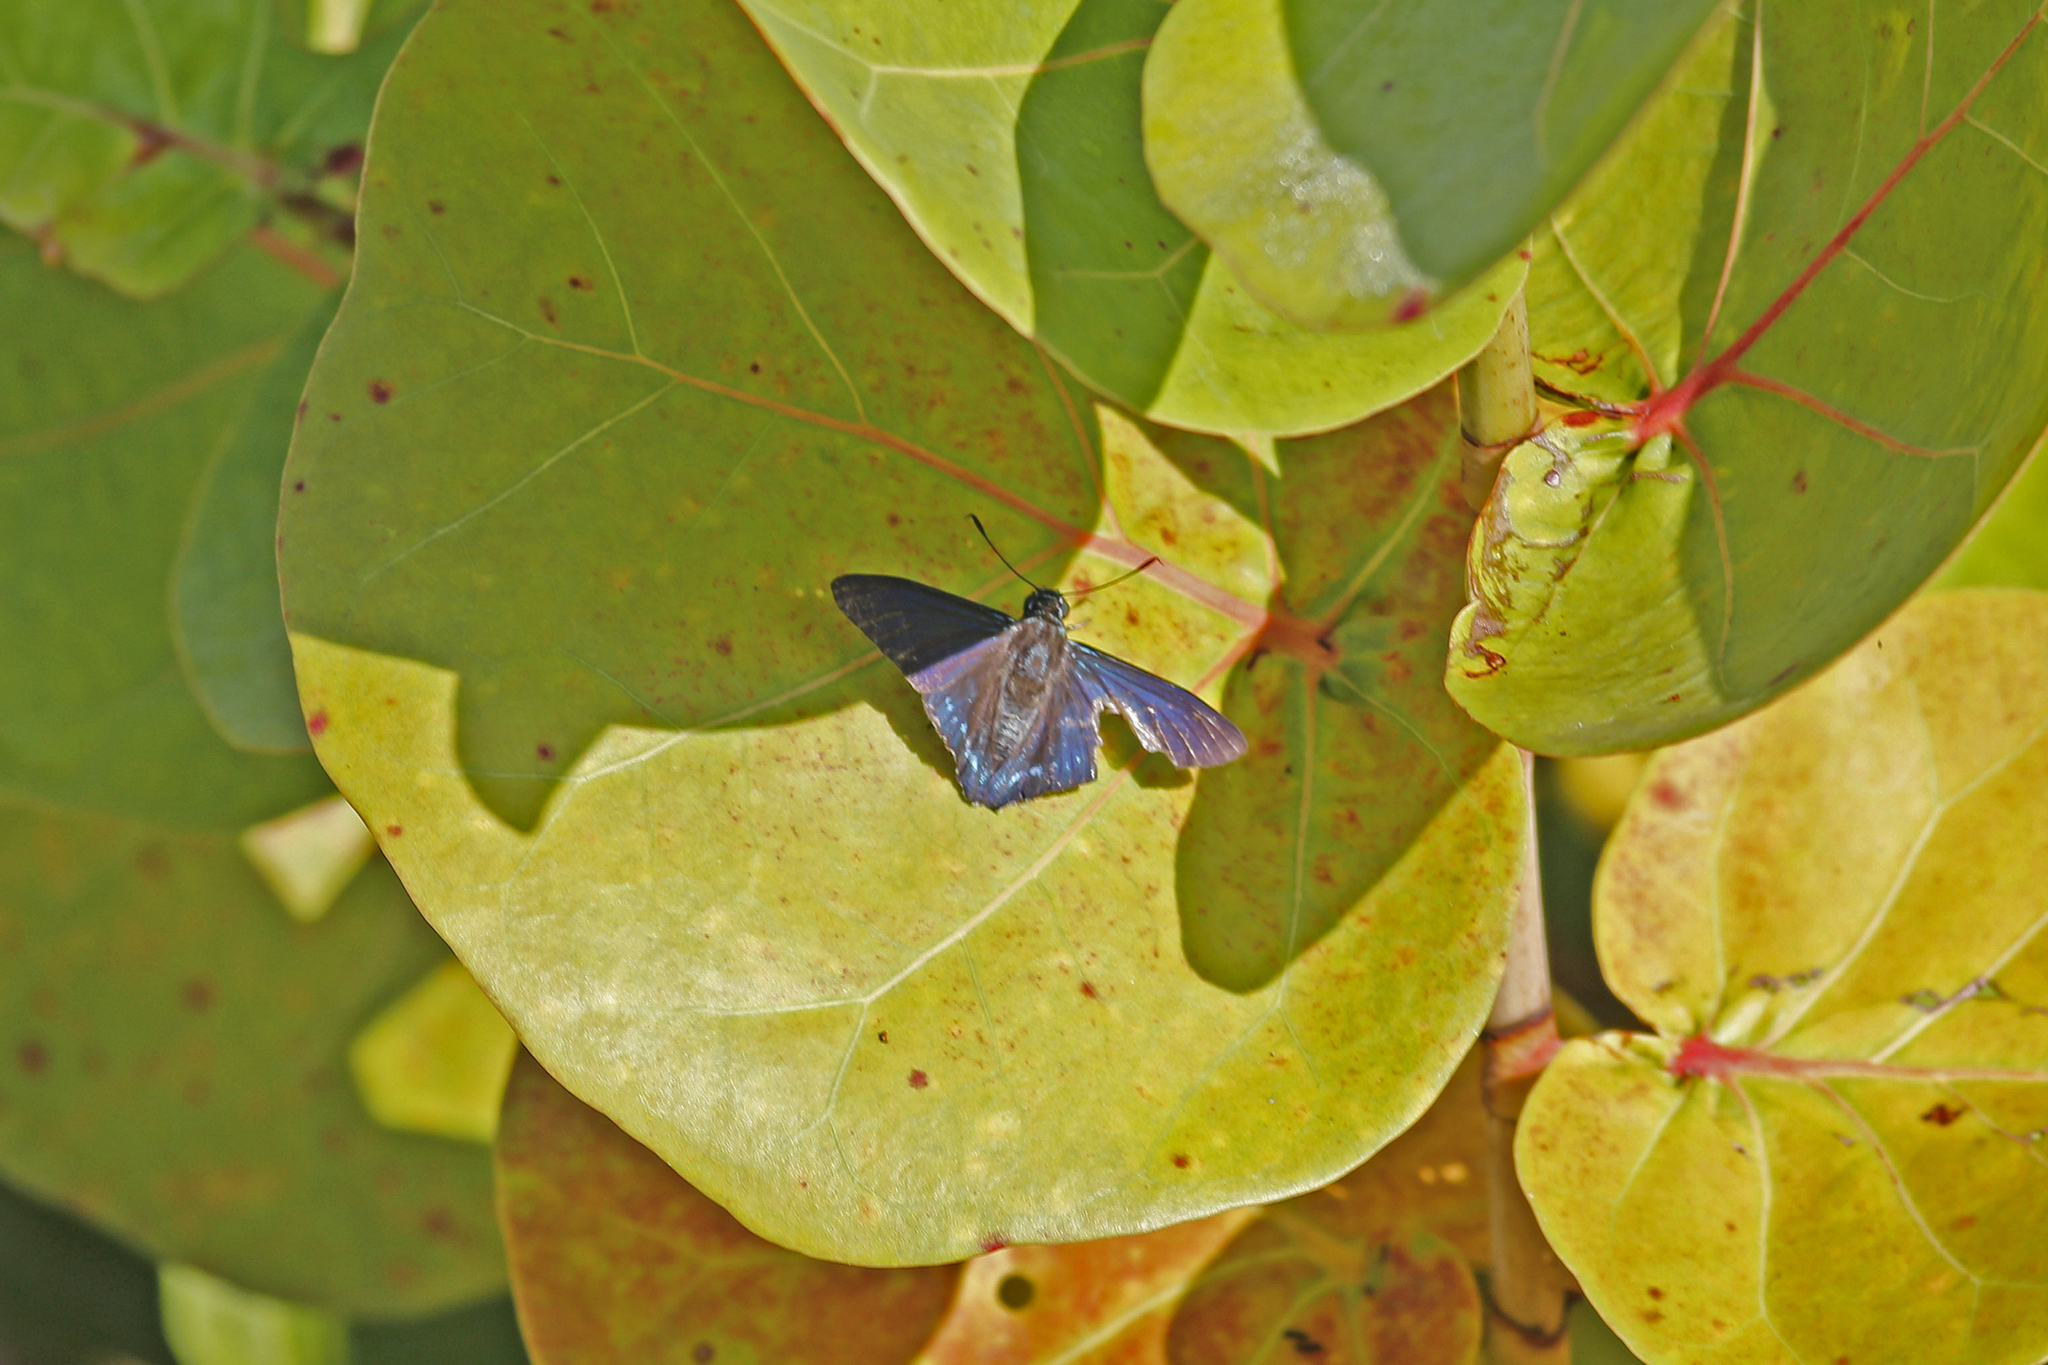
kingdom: Animalia
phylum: Arthropoda
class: Insecta
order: Lepidoptera
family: Hesperiidae
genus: Phocides
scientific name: Phocides pigmalion
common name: Mangrove skipper
